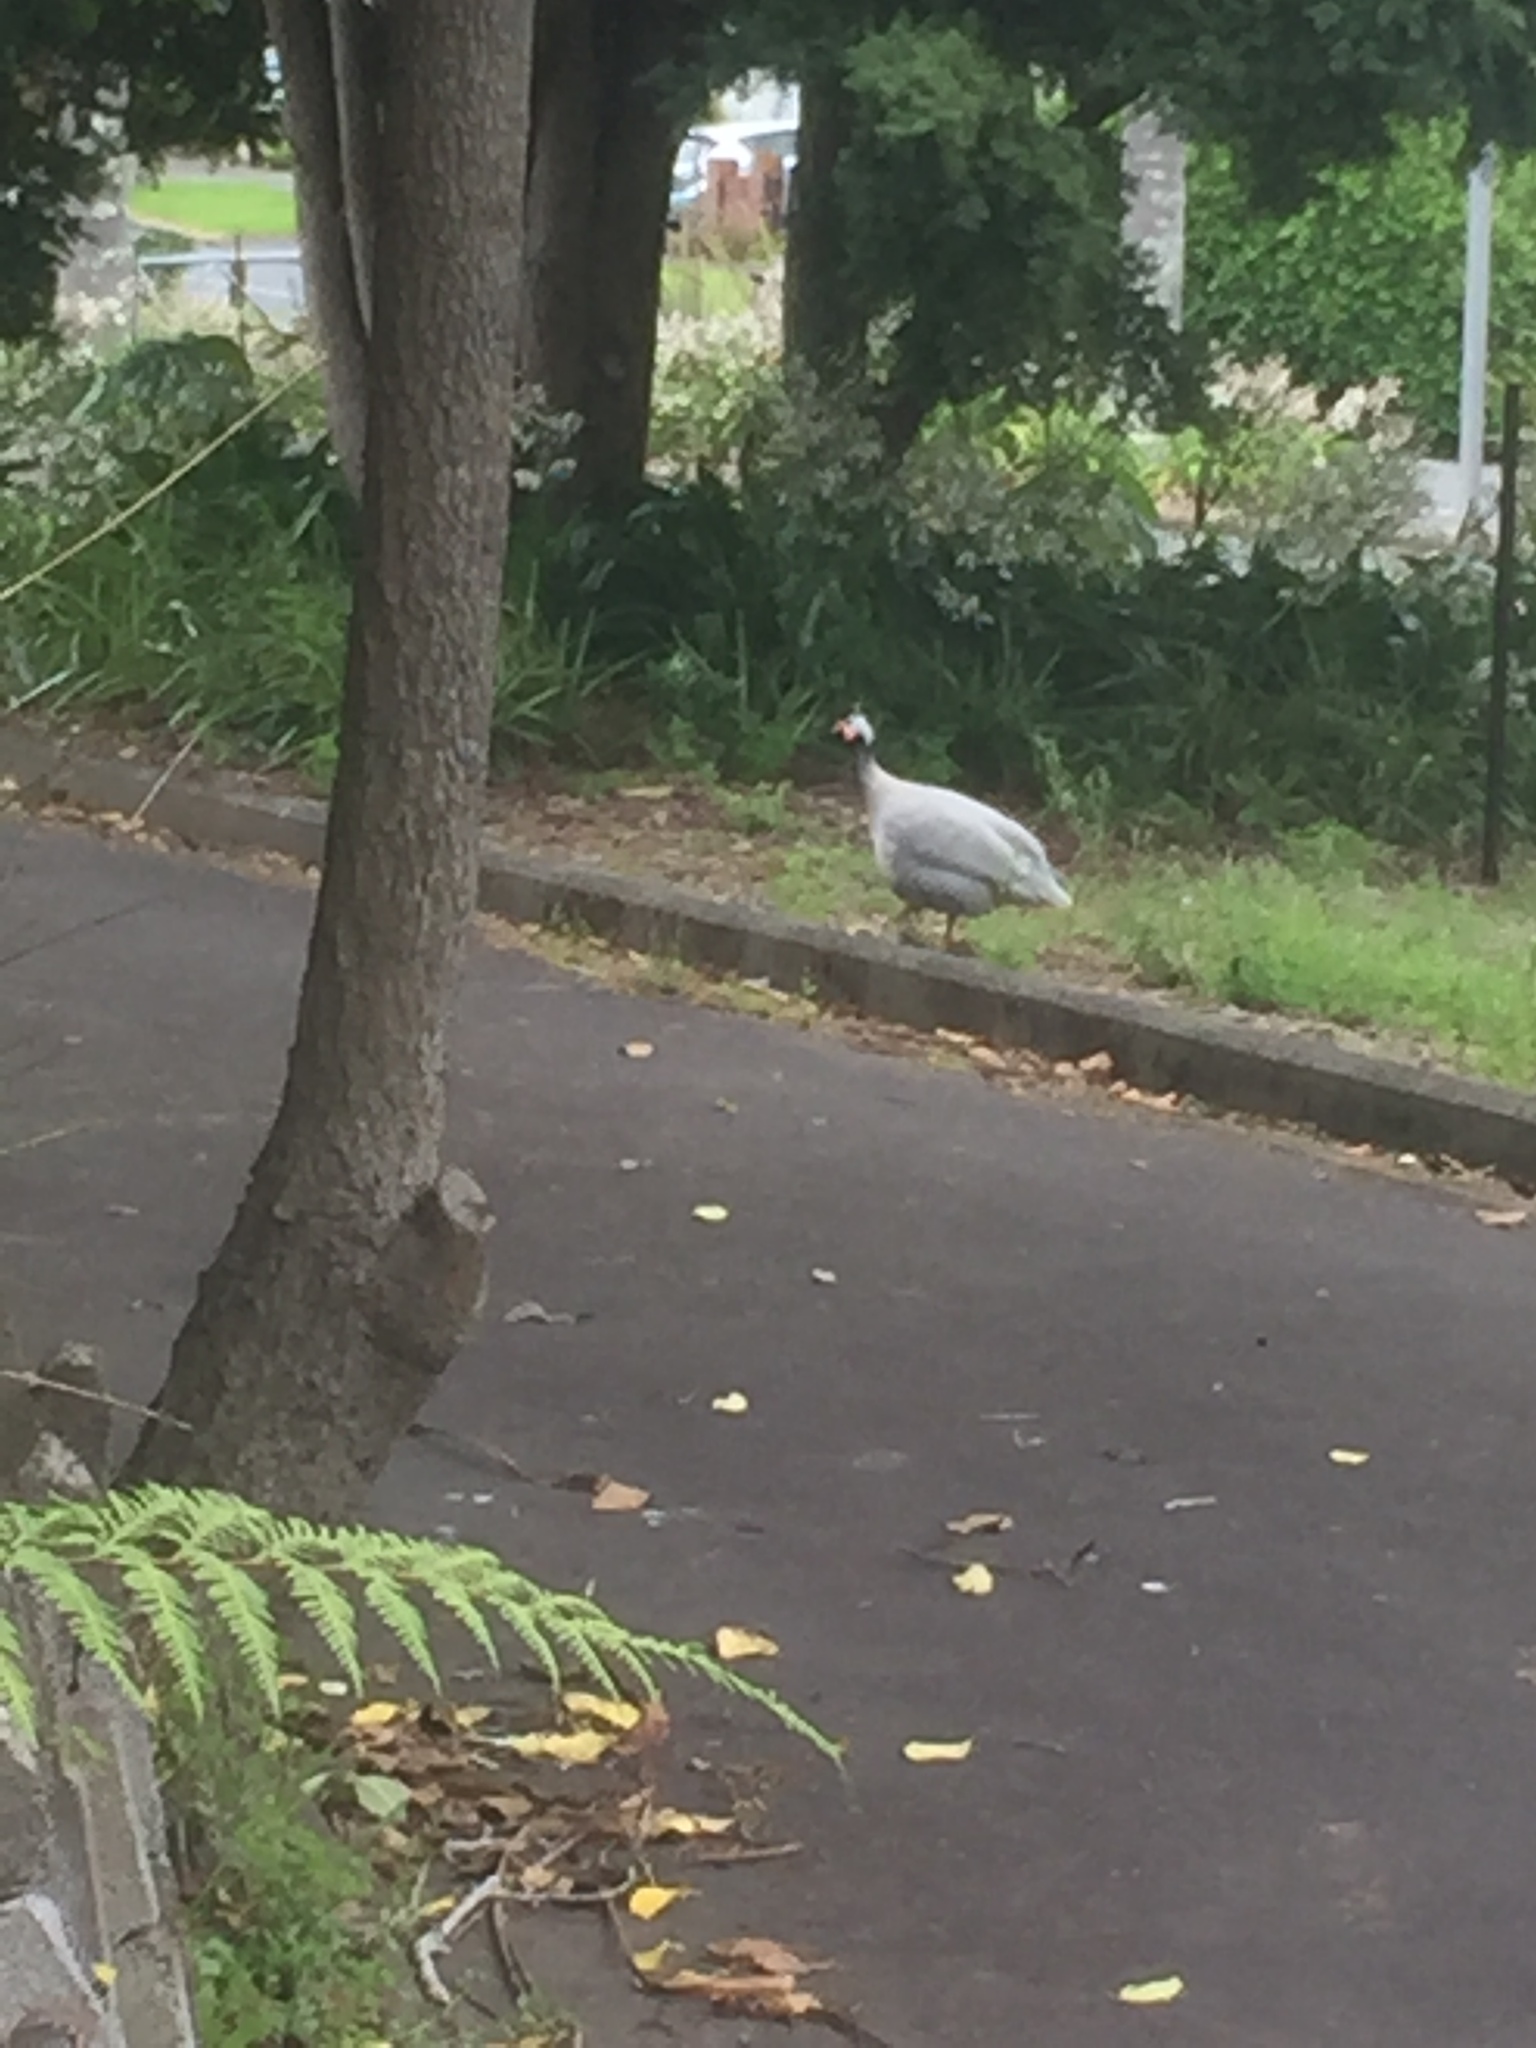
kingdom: Animalia
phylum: Chordata
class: Aves
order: Galliformes
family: Numididae
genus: Numida
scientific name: Numida meleagris
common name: Helmeted guineafowl
